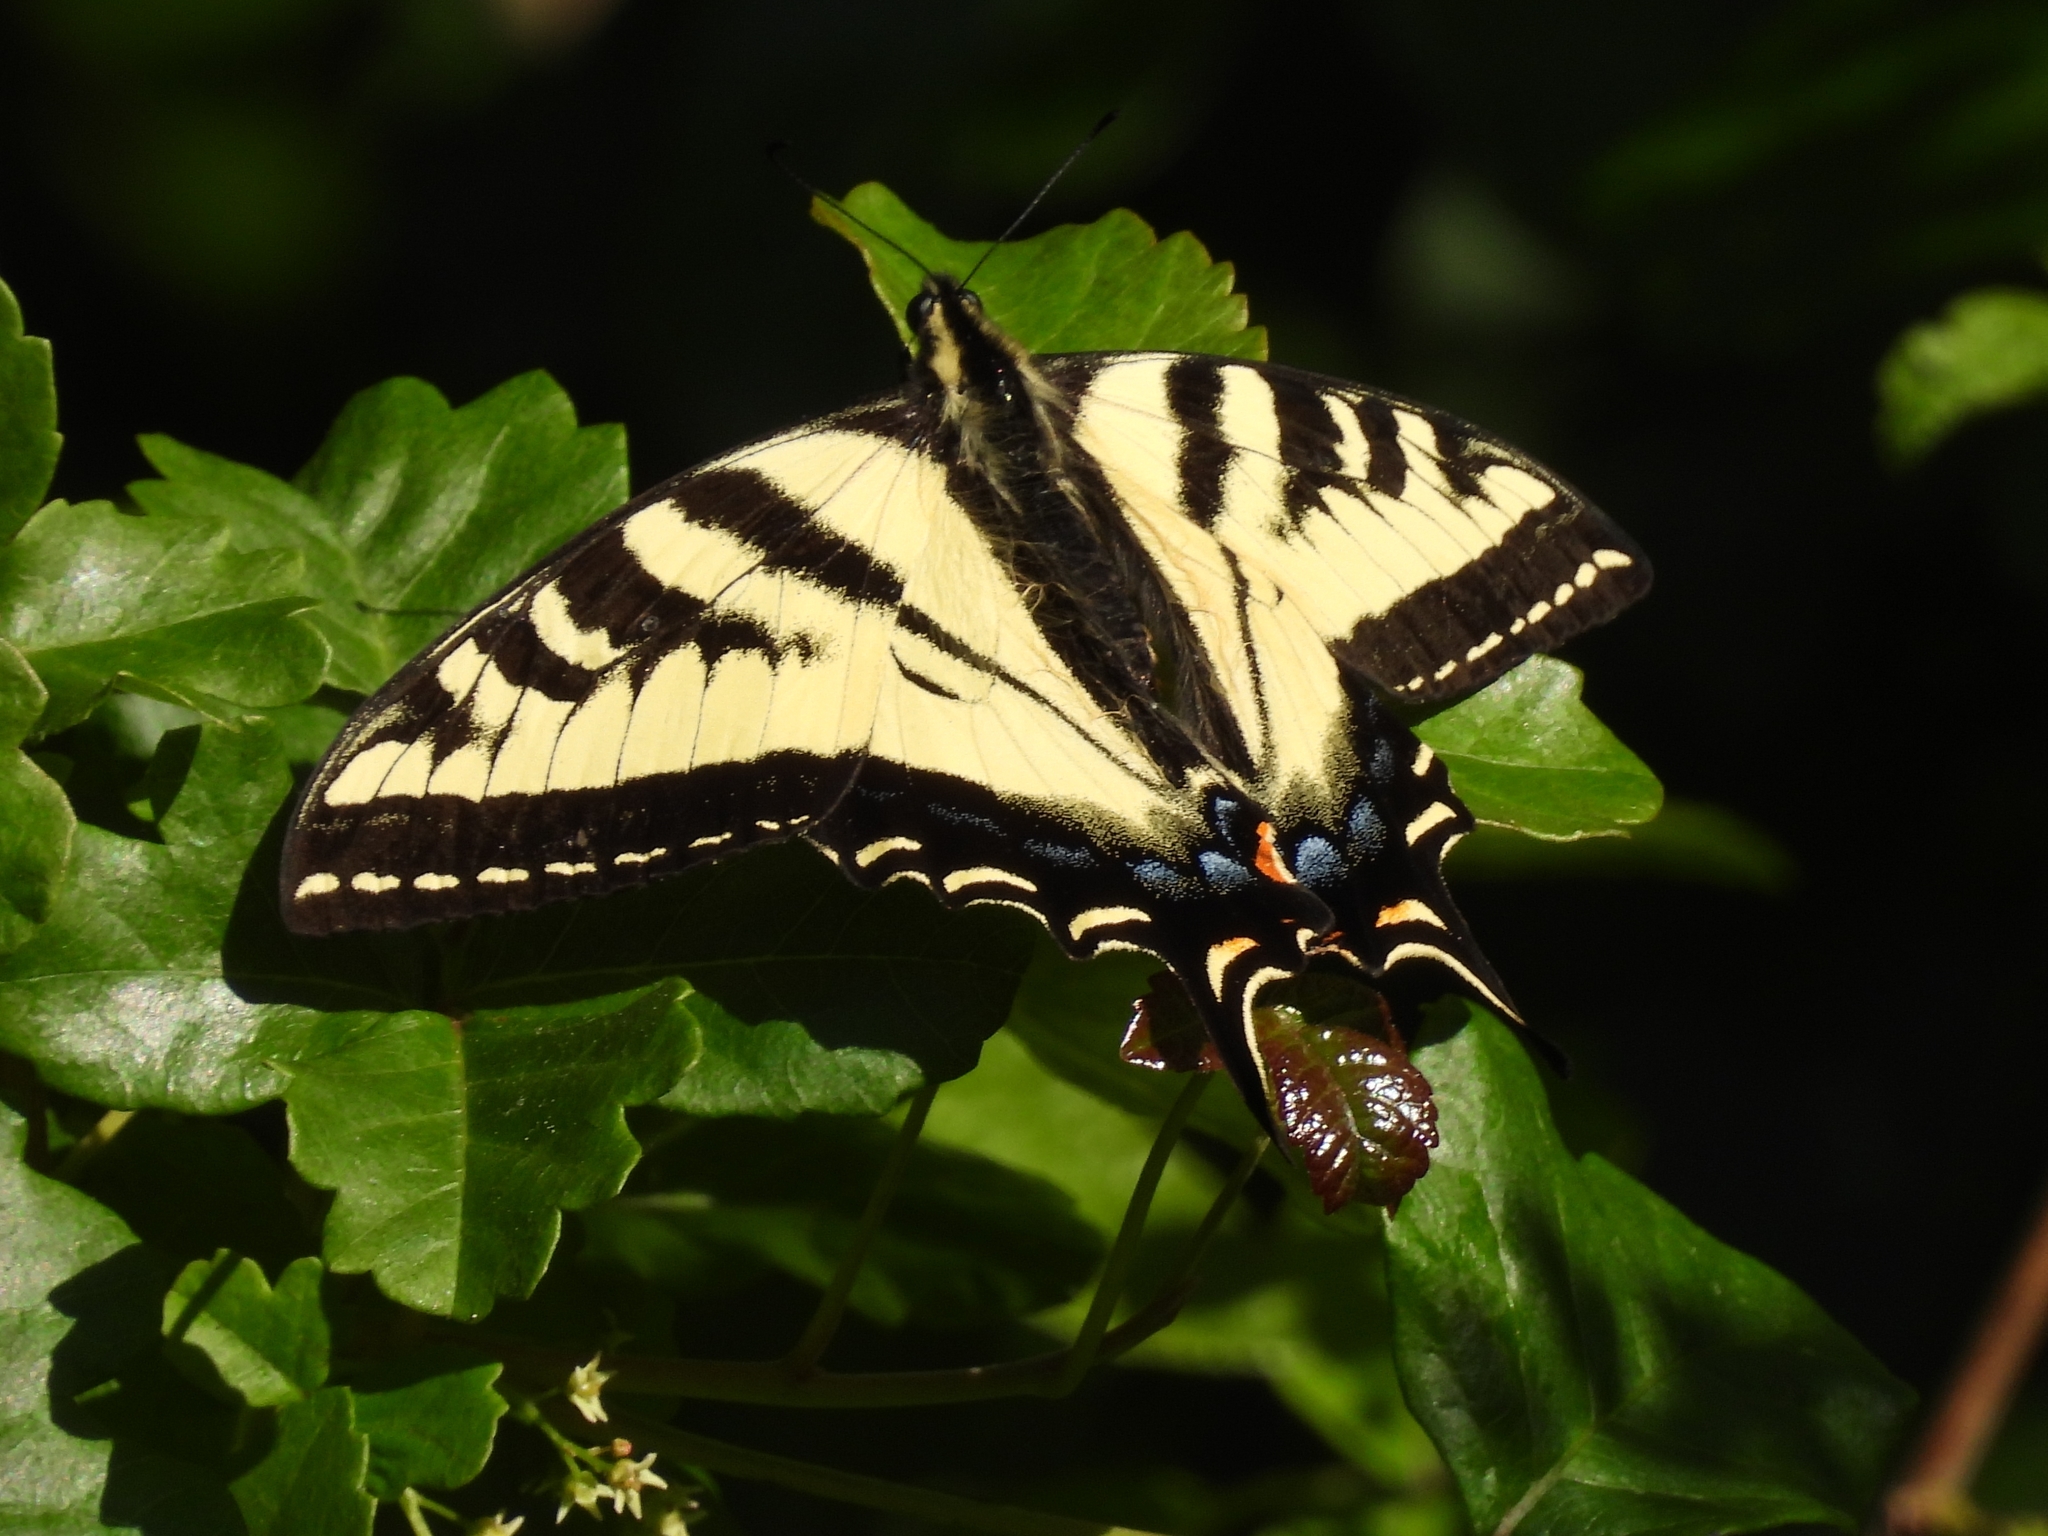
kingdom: Animalia
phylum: Arthropoda
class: Insecta
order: Lepidoptera
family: Papilionidae
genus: Papilio
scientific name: Papilio rutulus
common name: Western tiger swallowtail
